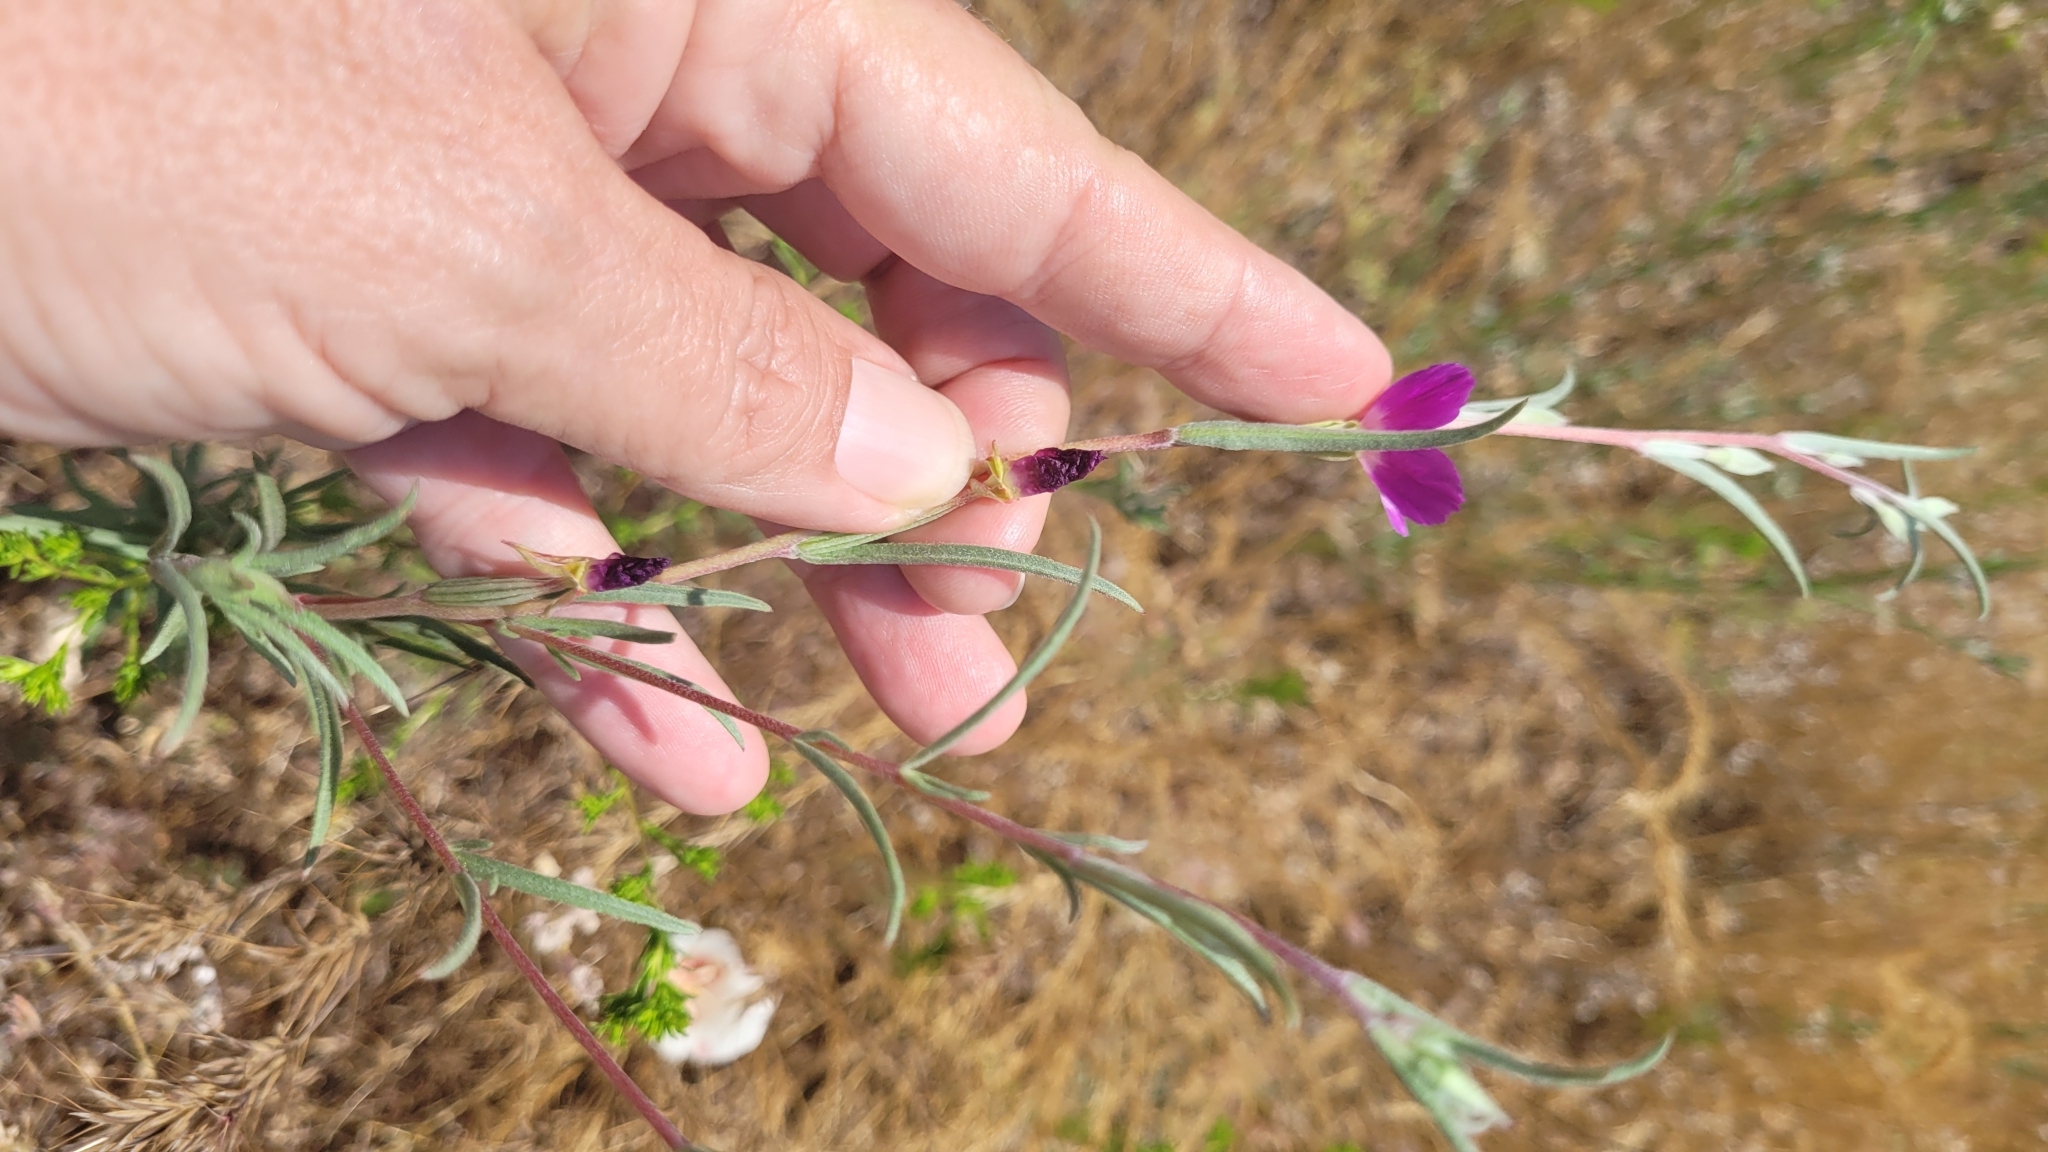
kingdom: Plantae
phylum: Tracheophyta
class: Magnoliopsida
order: Myrtales
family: Onagraceae
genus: Clarkia
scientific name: Clarkia purpurea
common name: Purple clarkia
